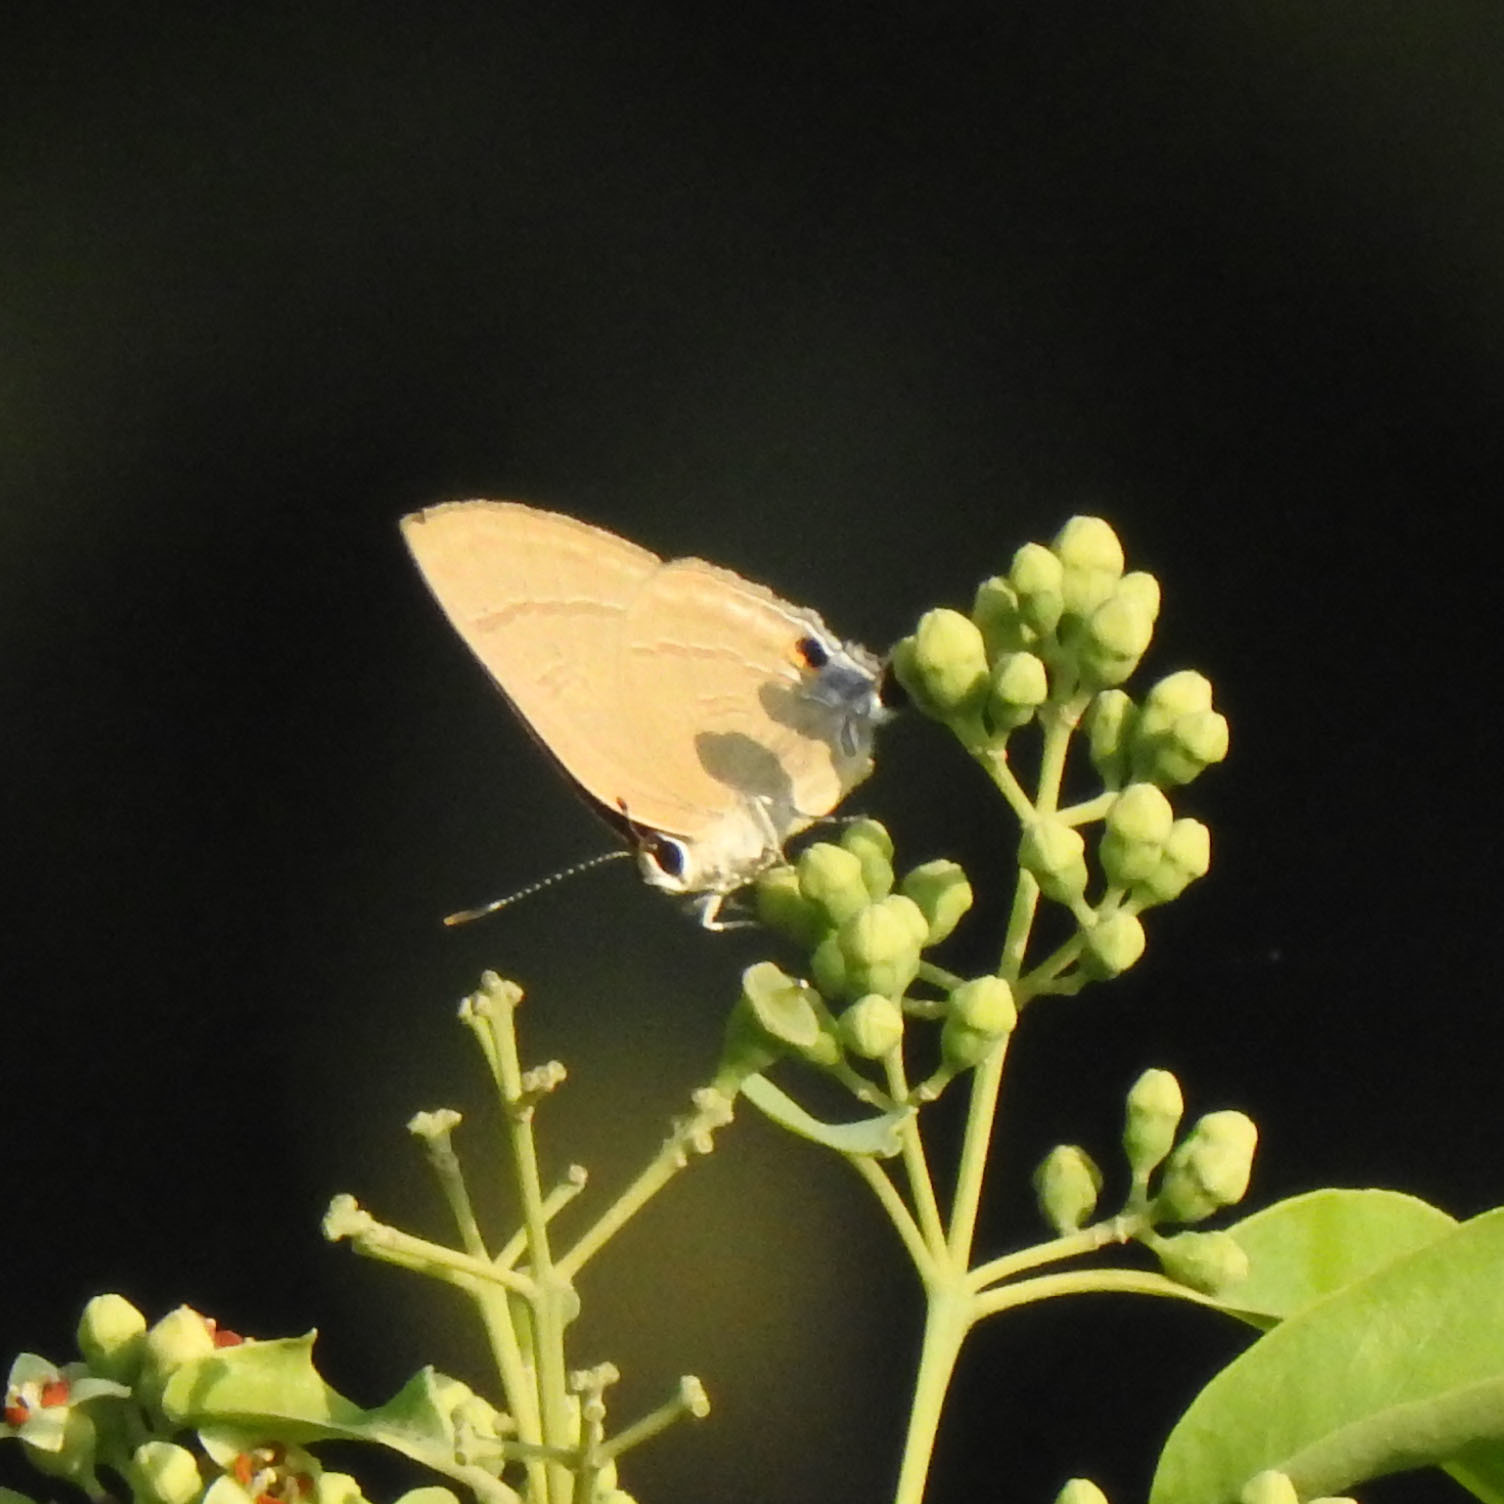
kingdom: Animalia
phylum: Arthropoda
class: Insecta
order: Lepidoptera
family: Lycaenidae
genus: Rapala
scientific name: Rapala manea
